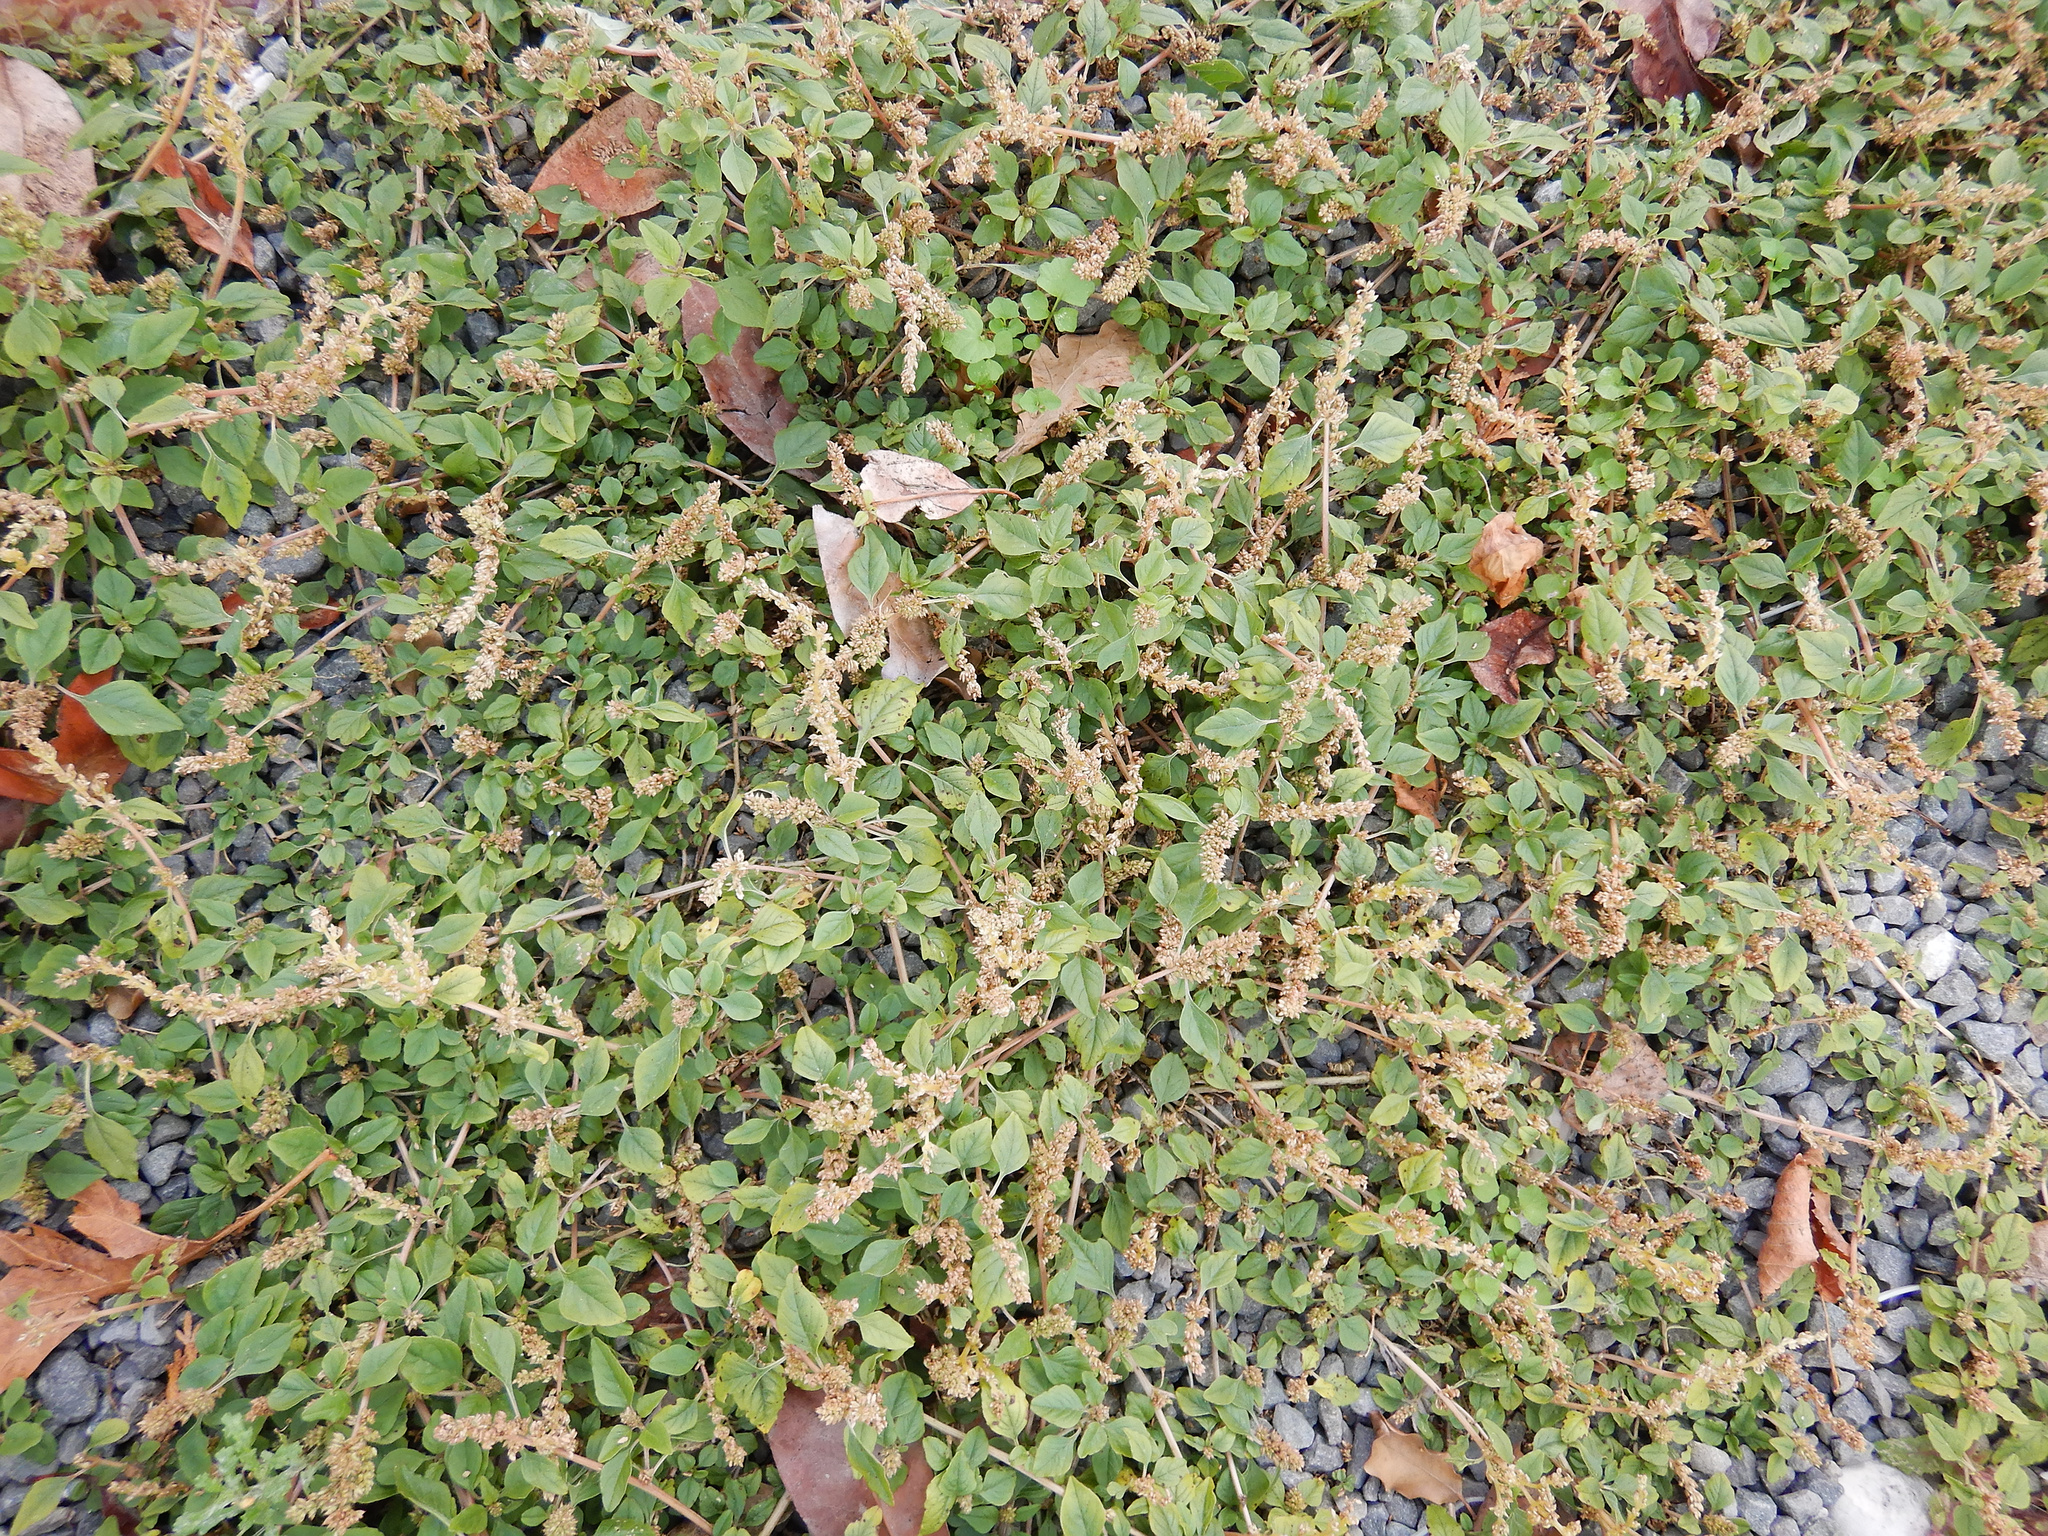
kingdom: Plantae
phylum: Tracheophyta
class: Magnoliopsida
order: Caryophyllales
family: Amaranthaceae
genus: Amaranthus
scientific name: Amaranthus deflexus
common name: Perennial pigweed
